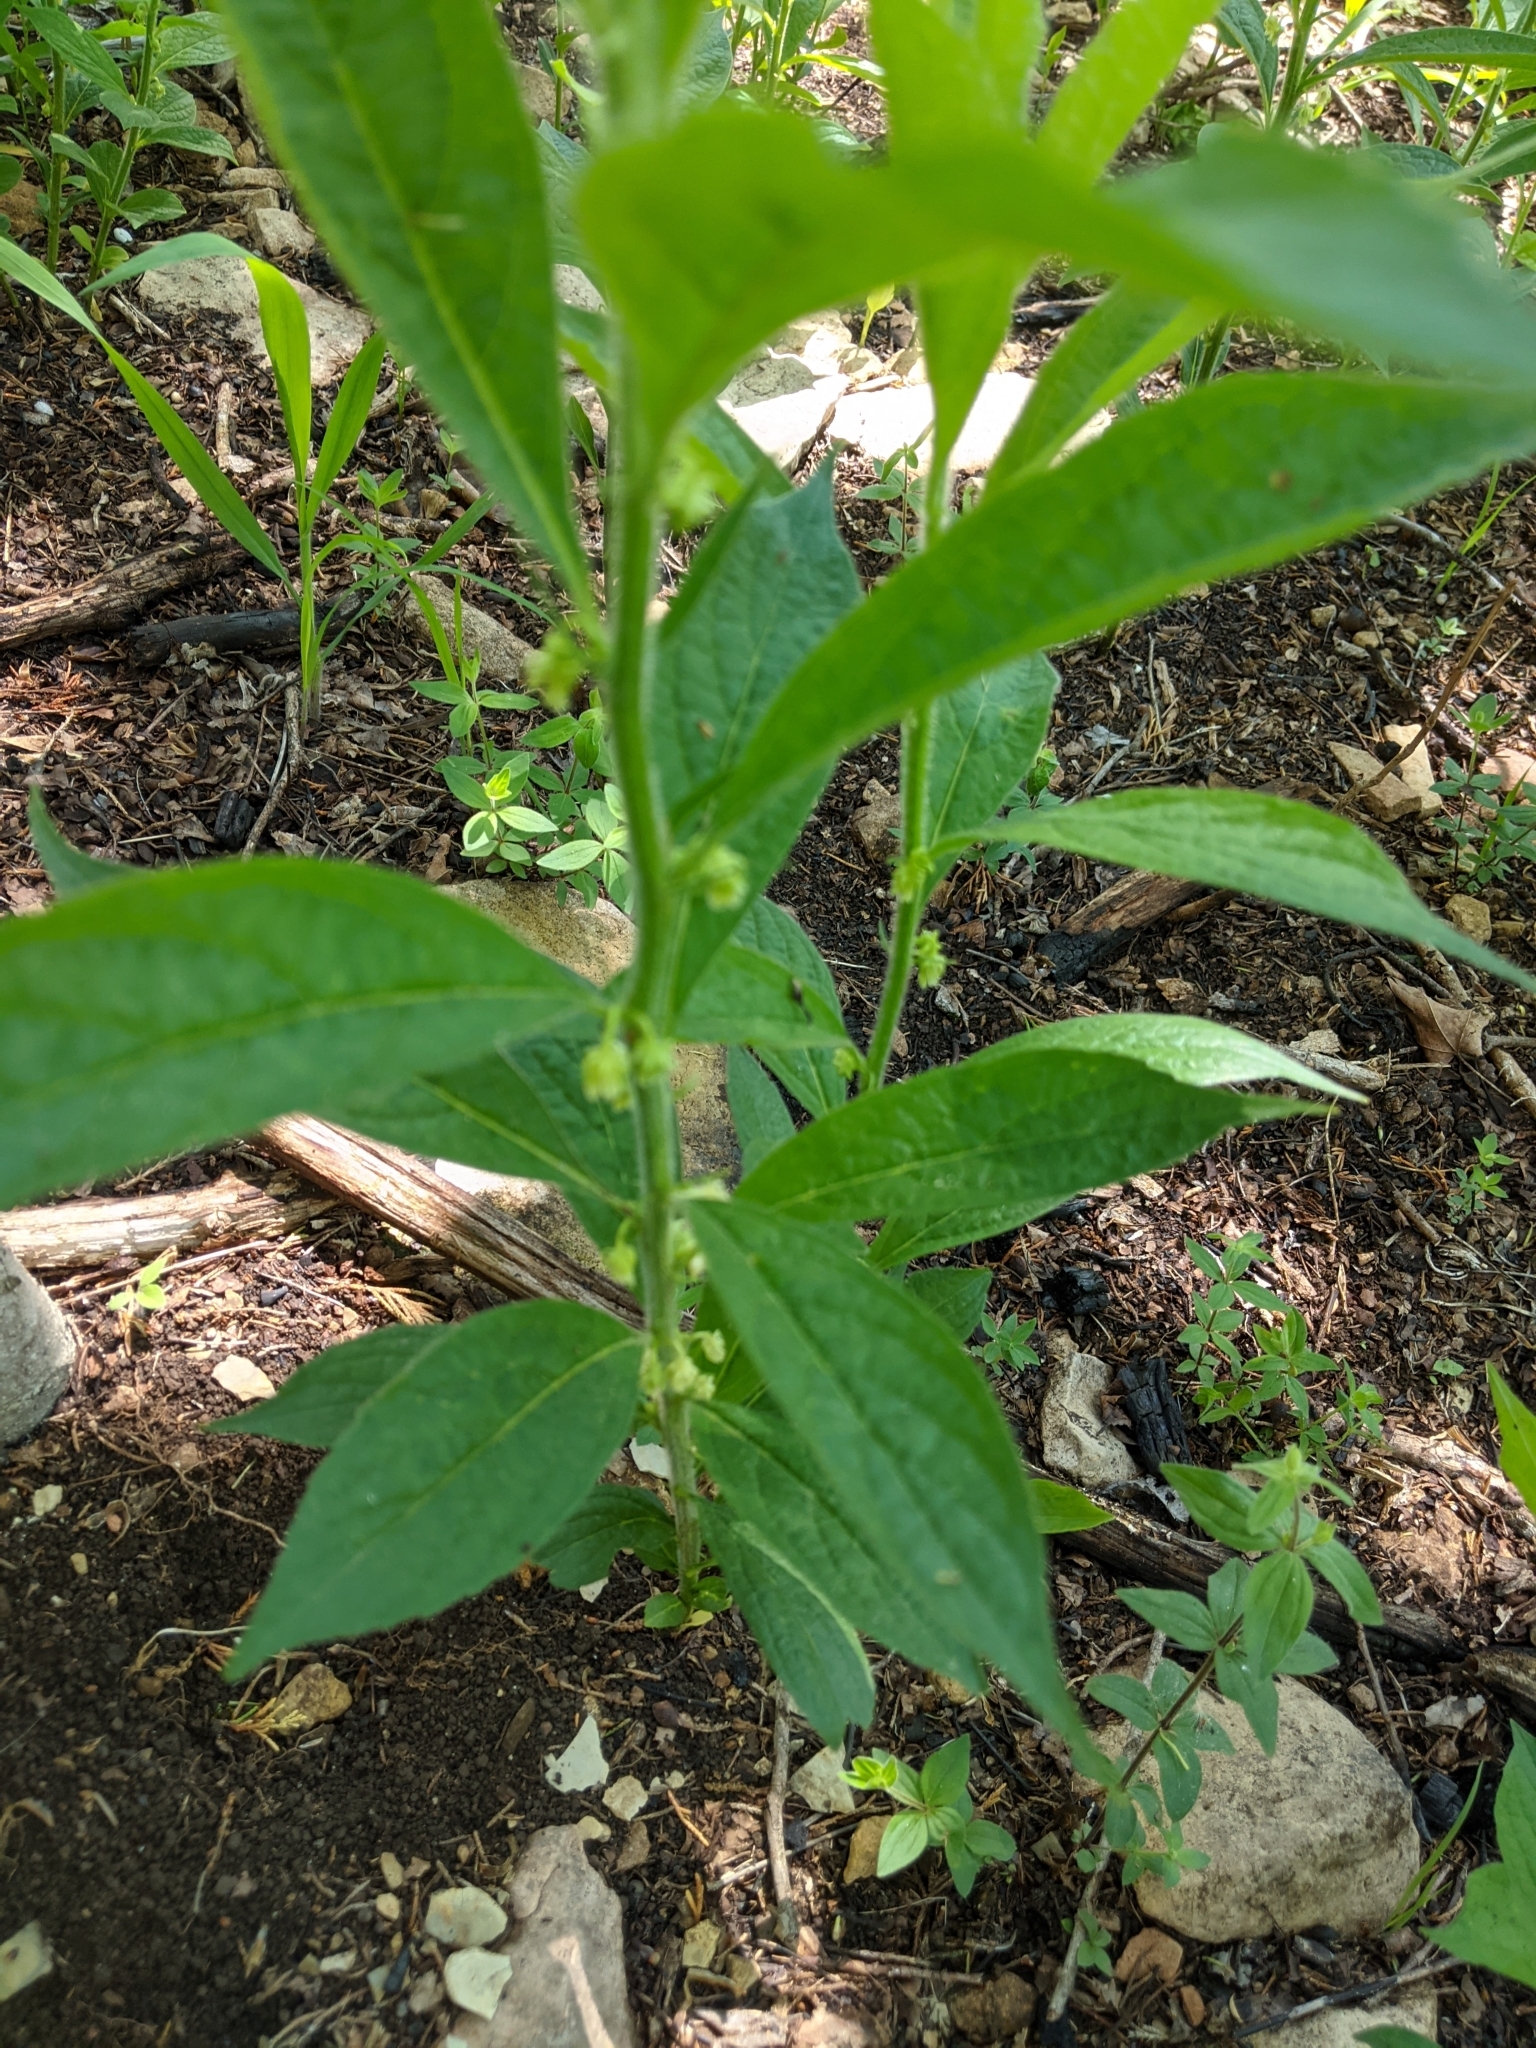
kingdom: Plantae
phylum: Tracheophyta
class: Magnoliopsida
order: Malpighiales
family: Violaceae
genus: Cubelium
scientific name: Cubelium concolor
